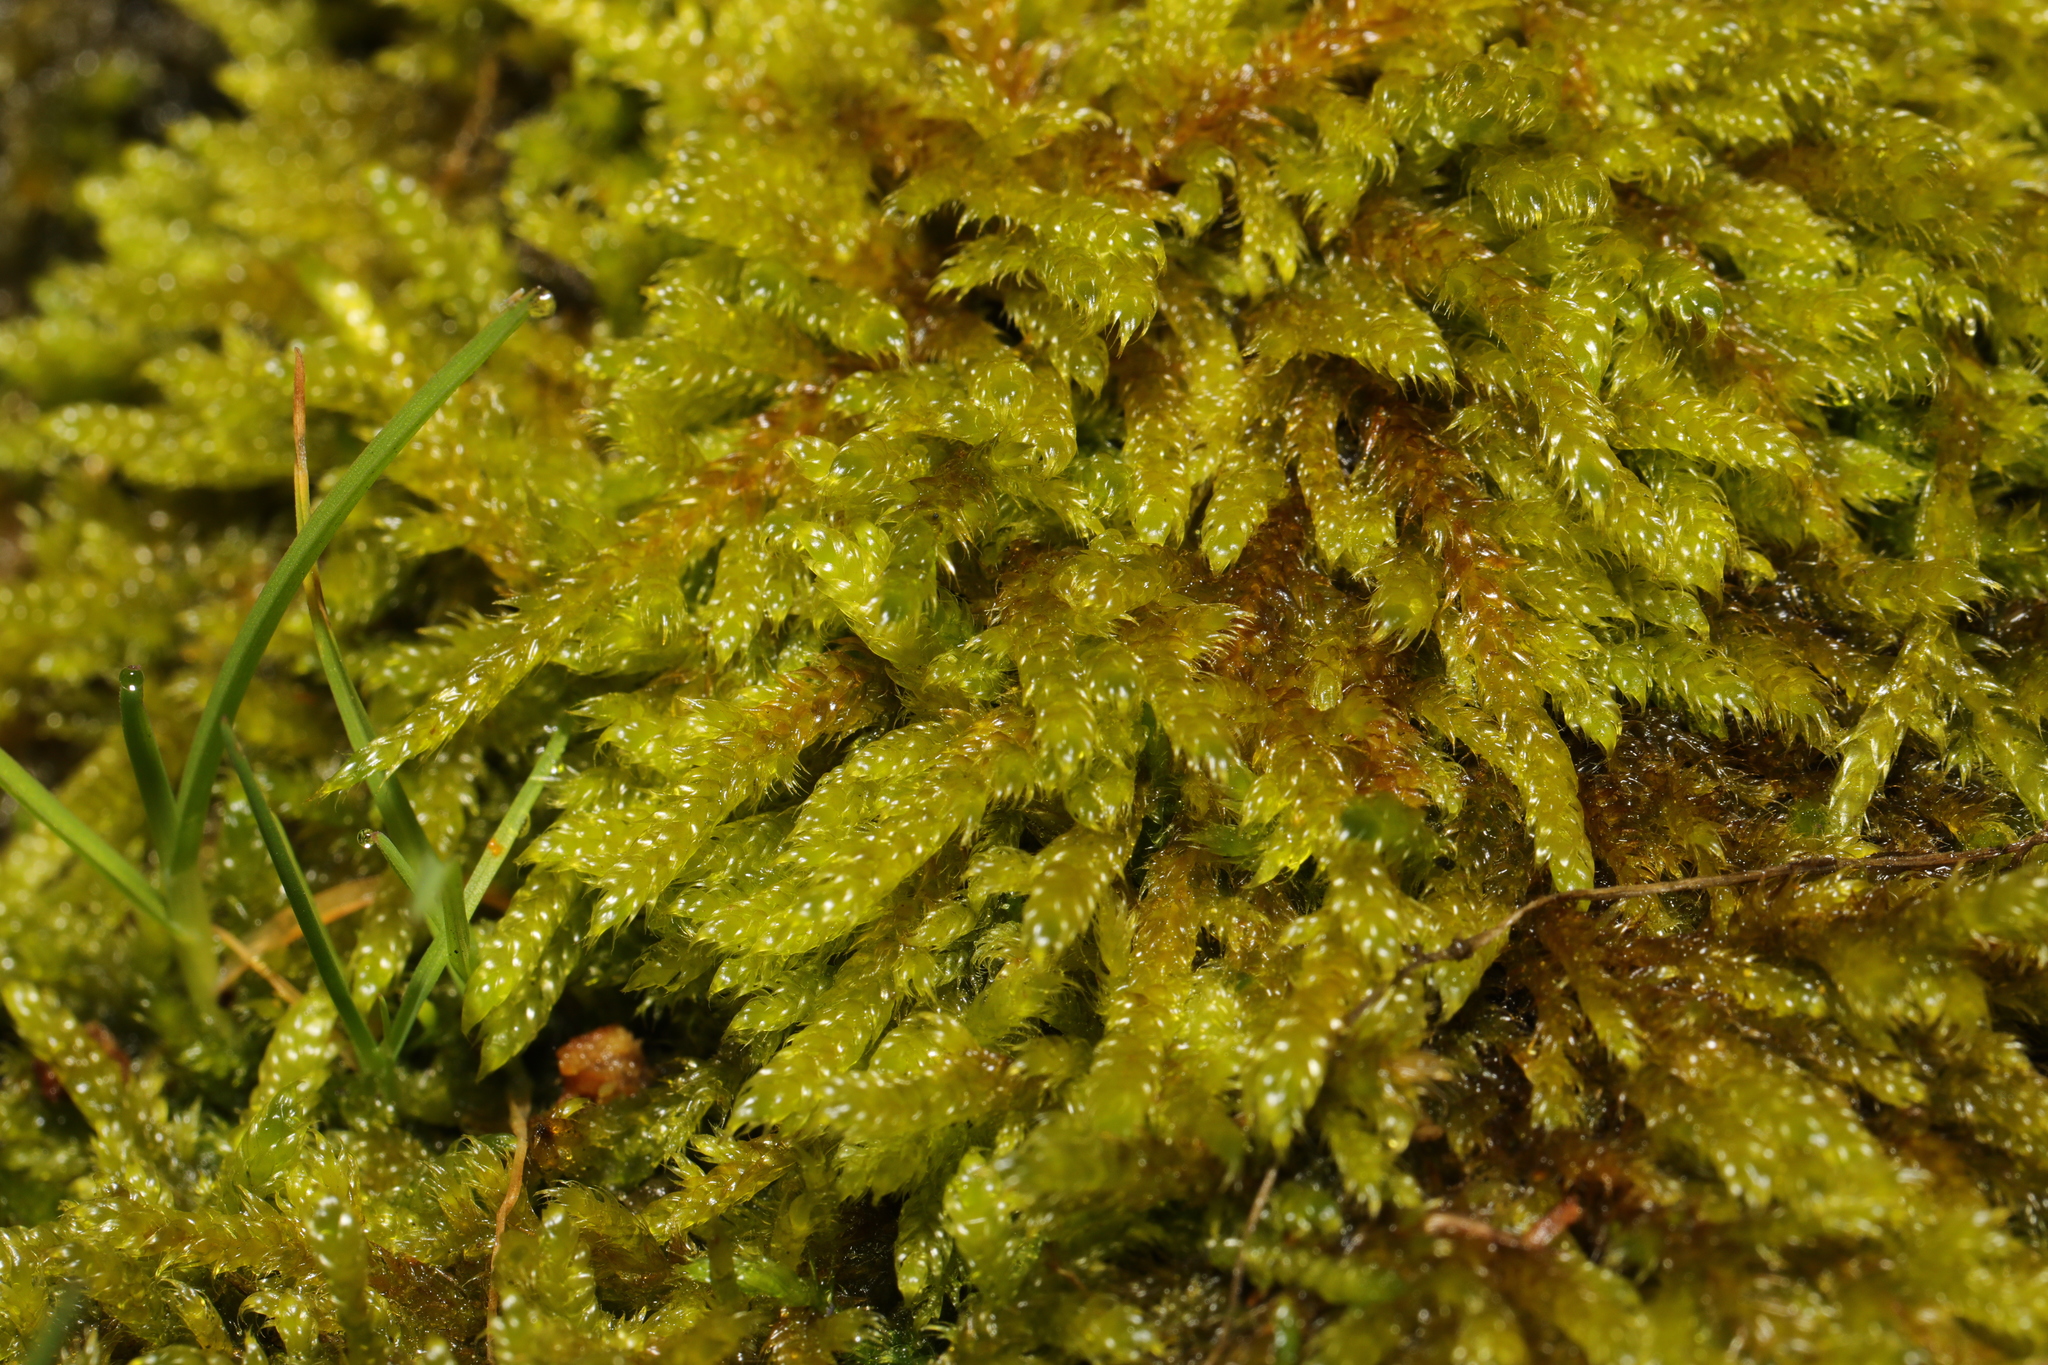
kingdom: Plantae
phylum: Bryophyta
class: Bryopsida
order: Hypnales
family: Hypnaceae
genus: Hypnum
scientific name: Hypnum cupressiforme
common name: Cypress-leaved plait-moss
